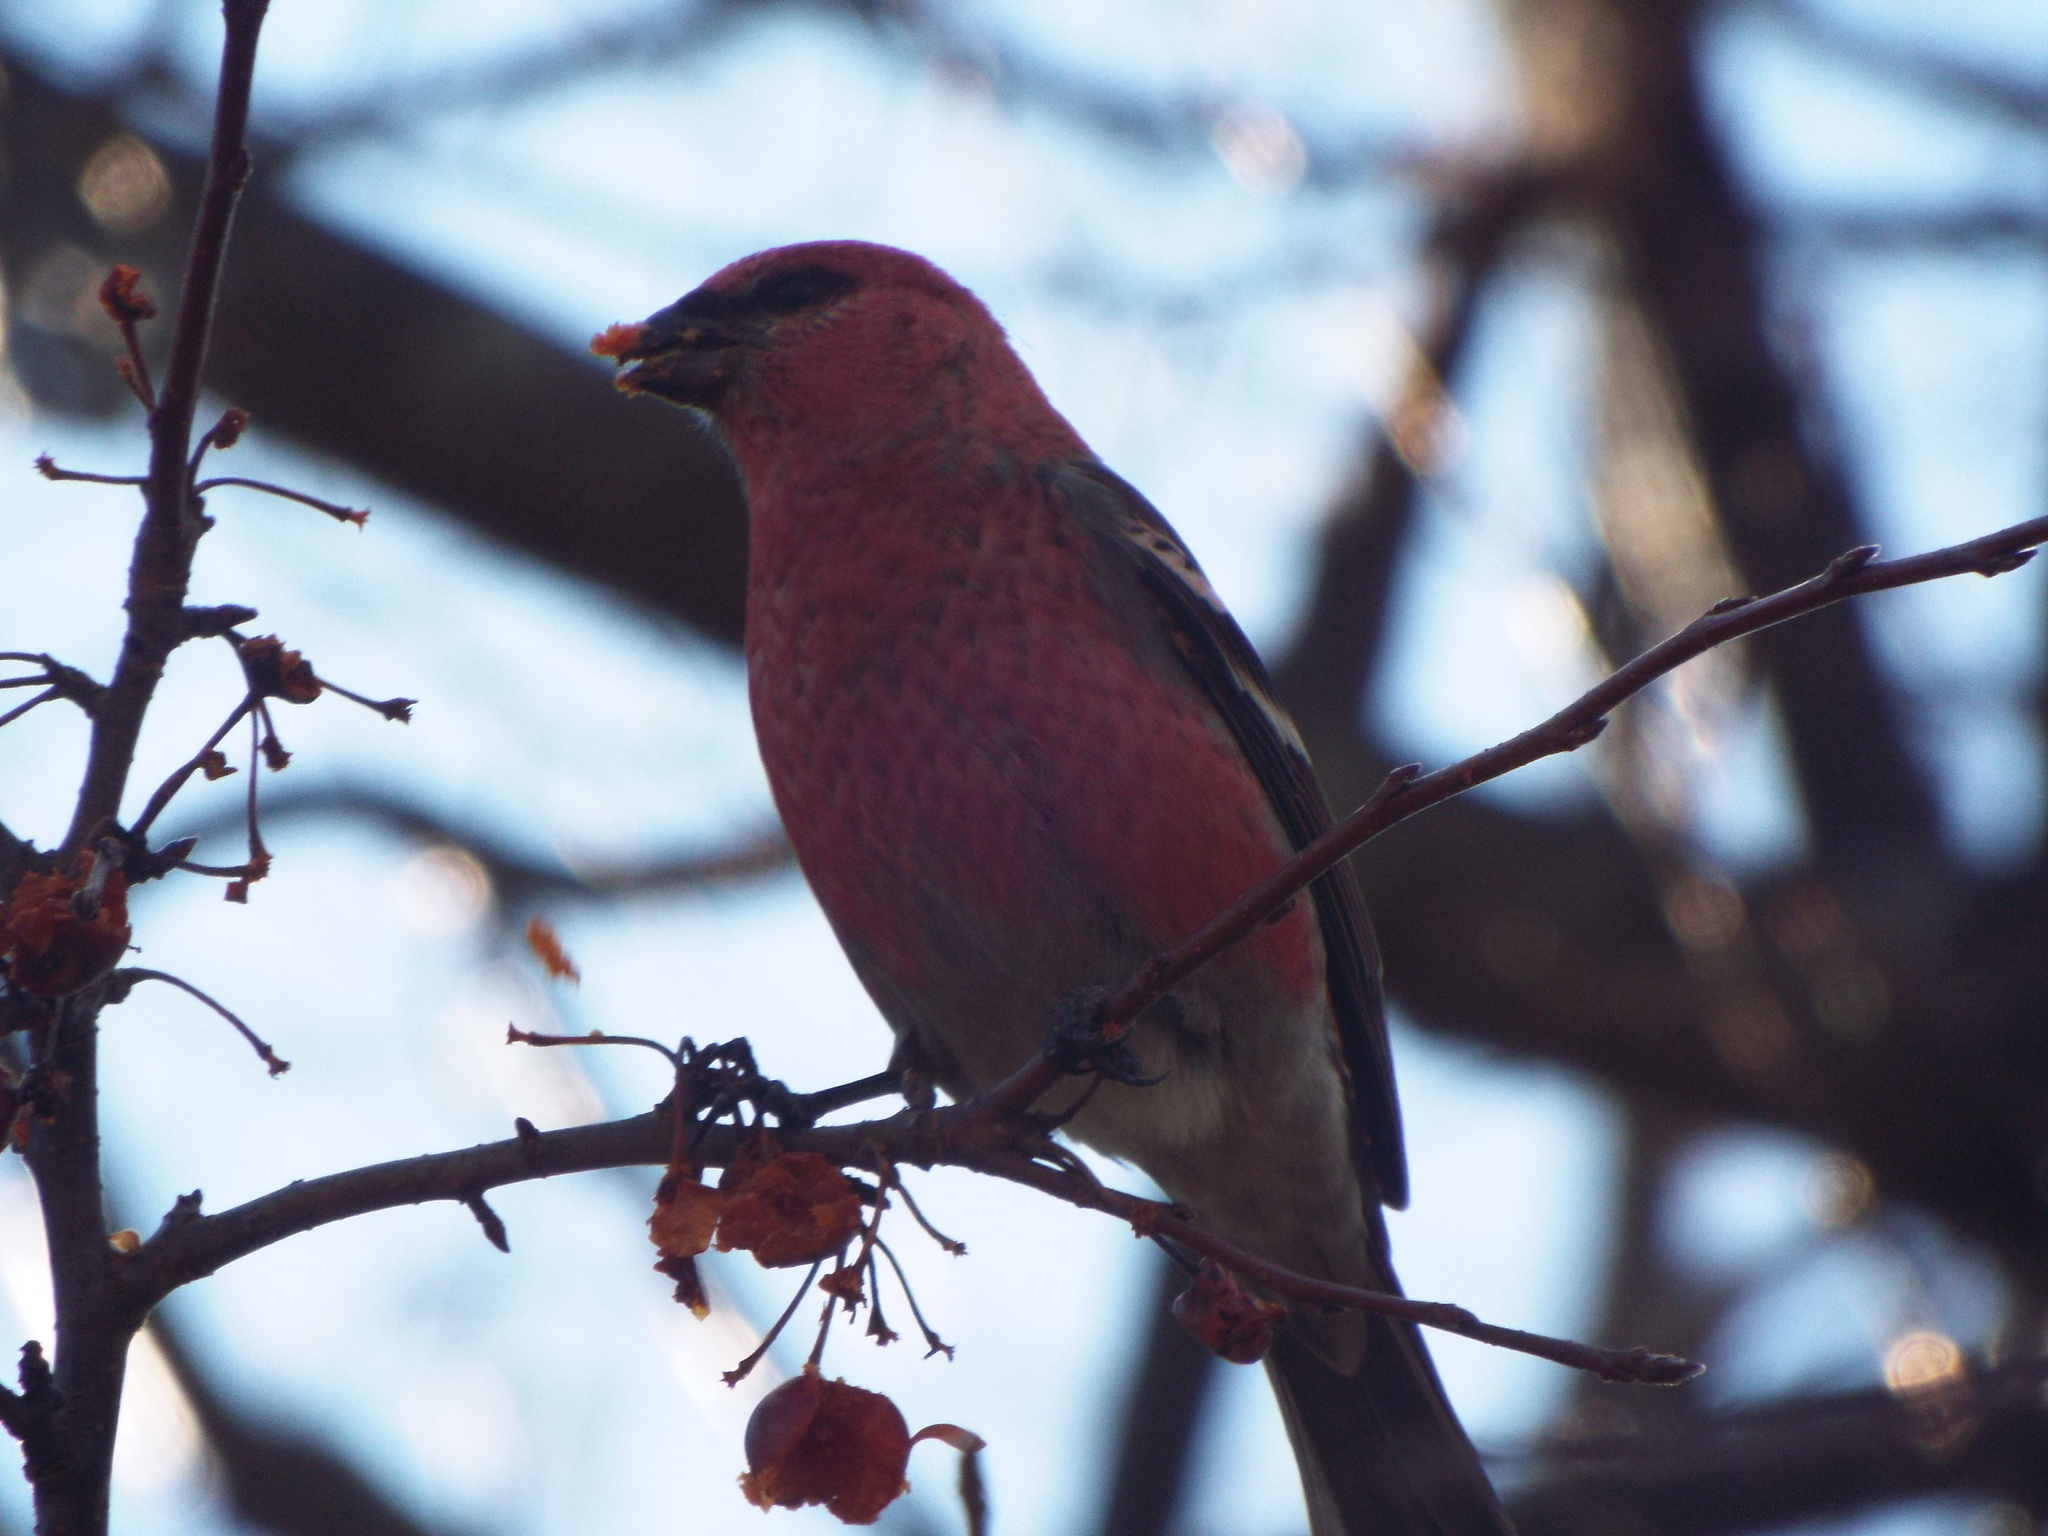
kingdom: Animalia
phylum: Chordata
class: Aves
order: Passeriformes
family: Fringillidae
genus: Pinicola
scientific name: Pinicola enucleator
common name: Pine grosbeak
